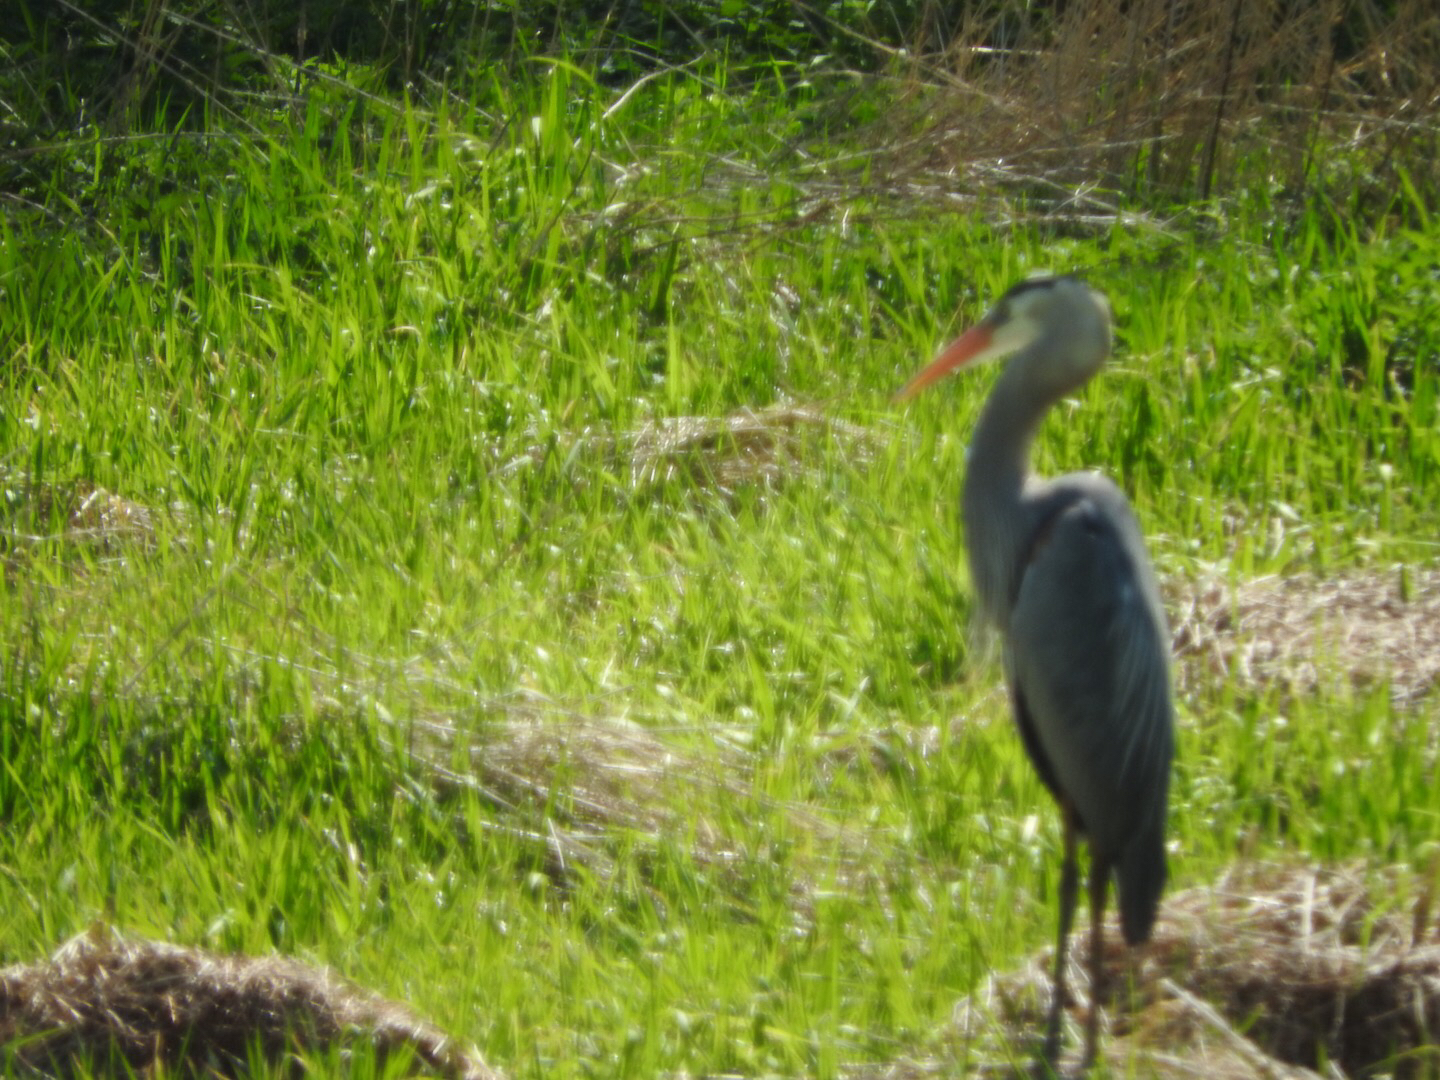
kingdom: Animalia
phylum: Chordata
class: Aves
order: Pelecaniformes
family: Ardeidae
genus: Ardea
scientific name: Ardea herodias
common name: Great blue heron
